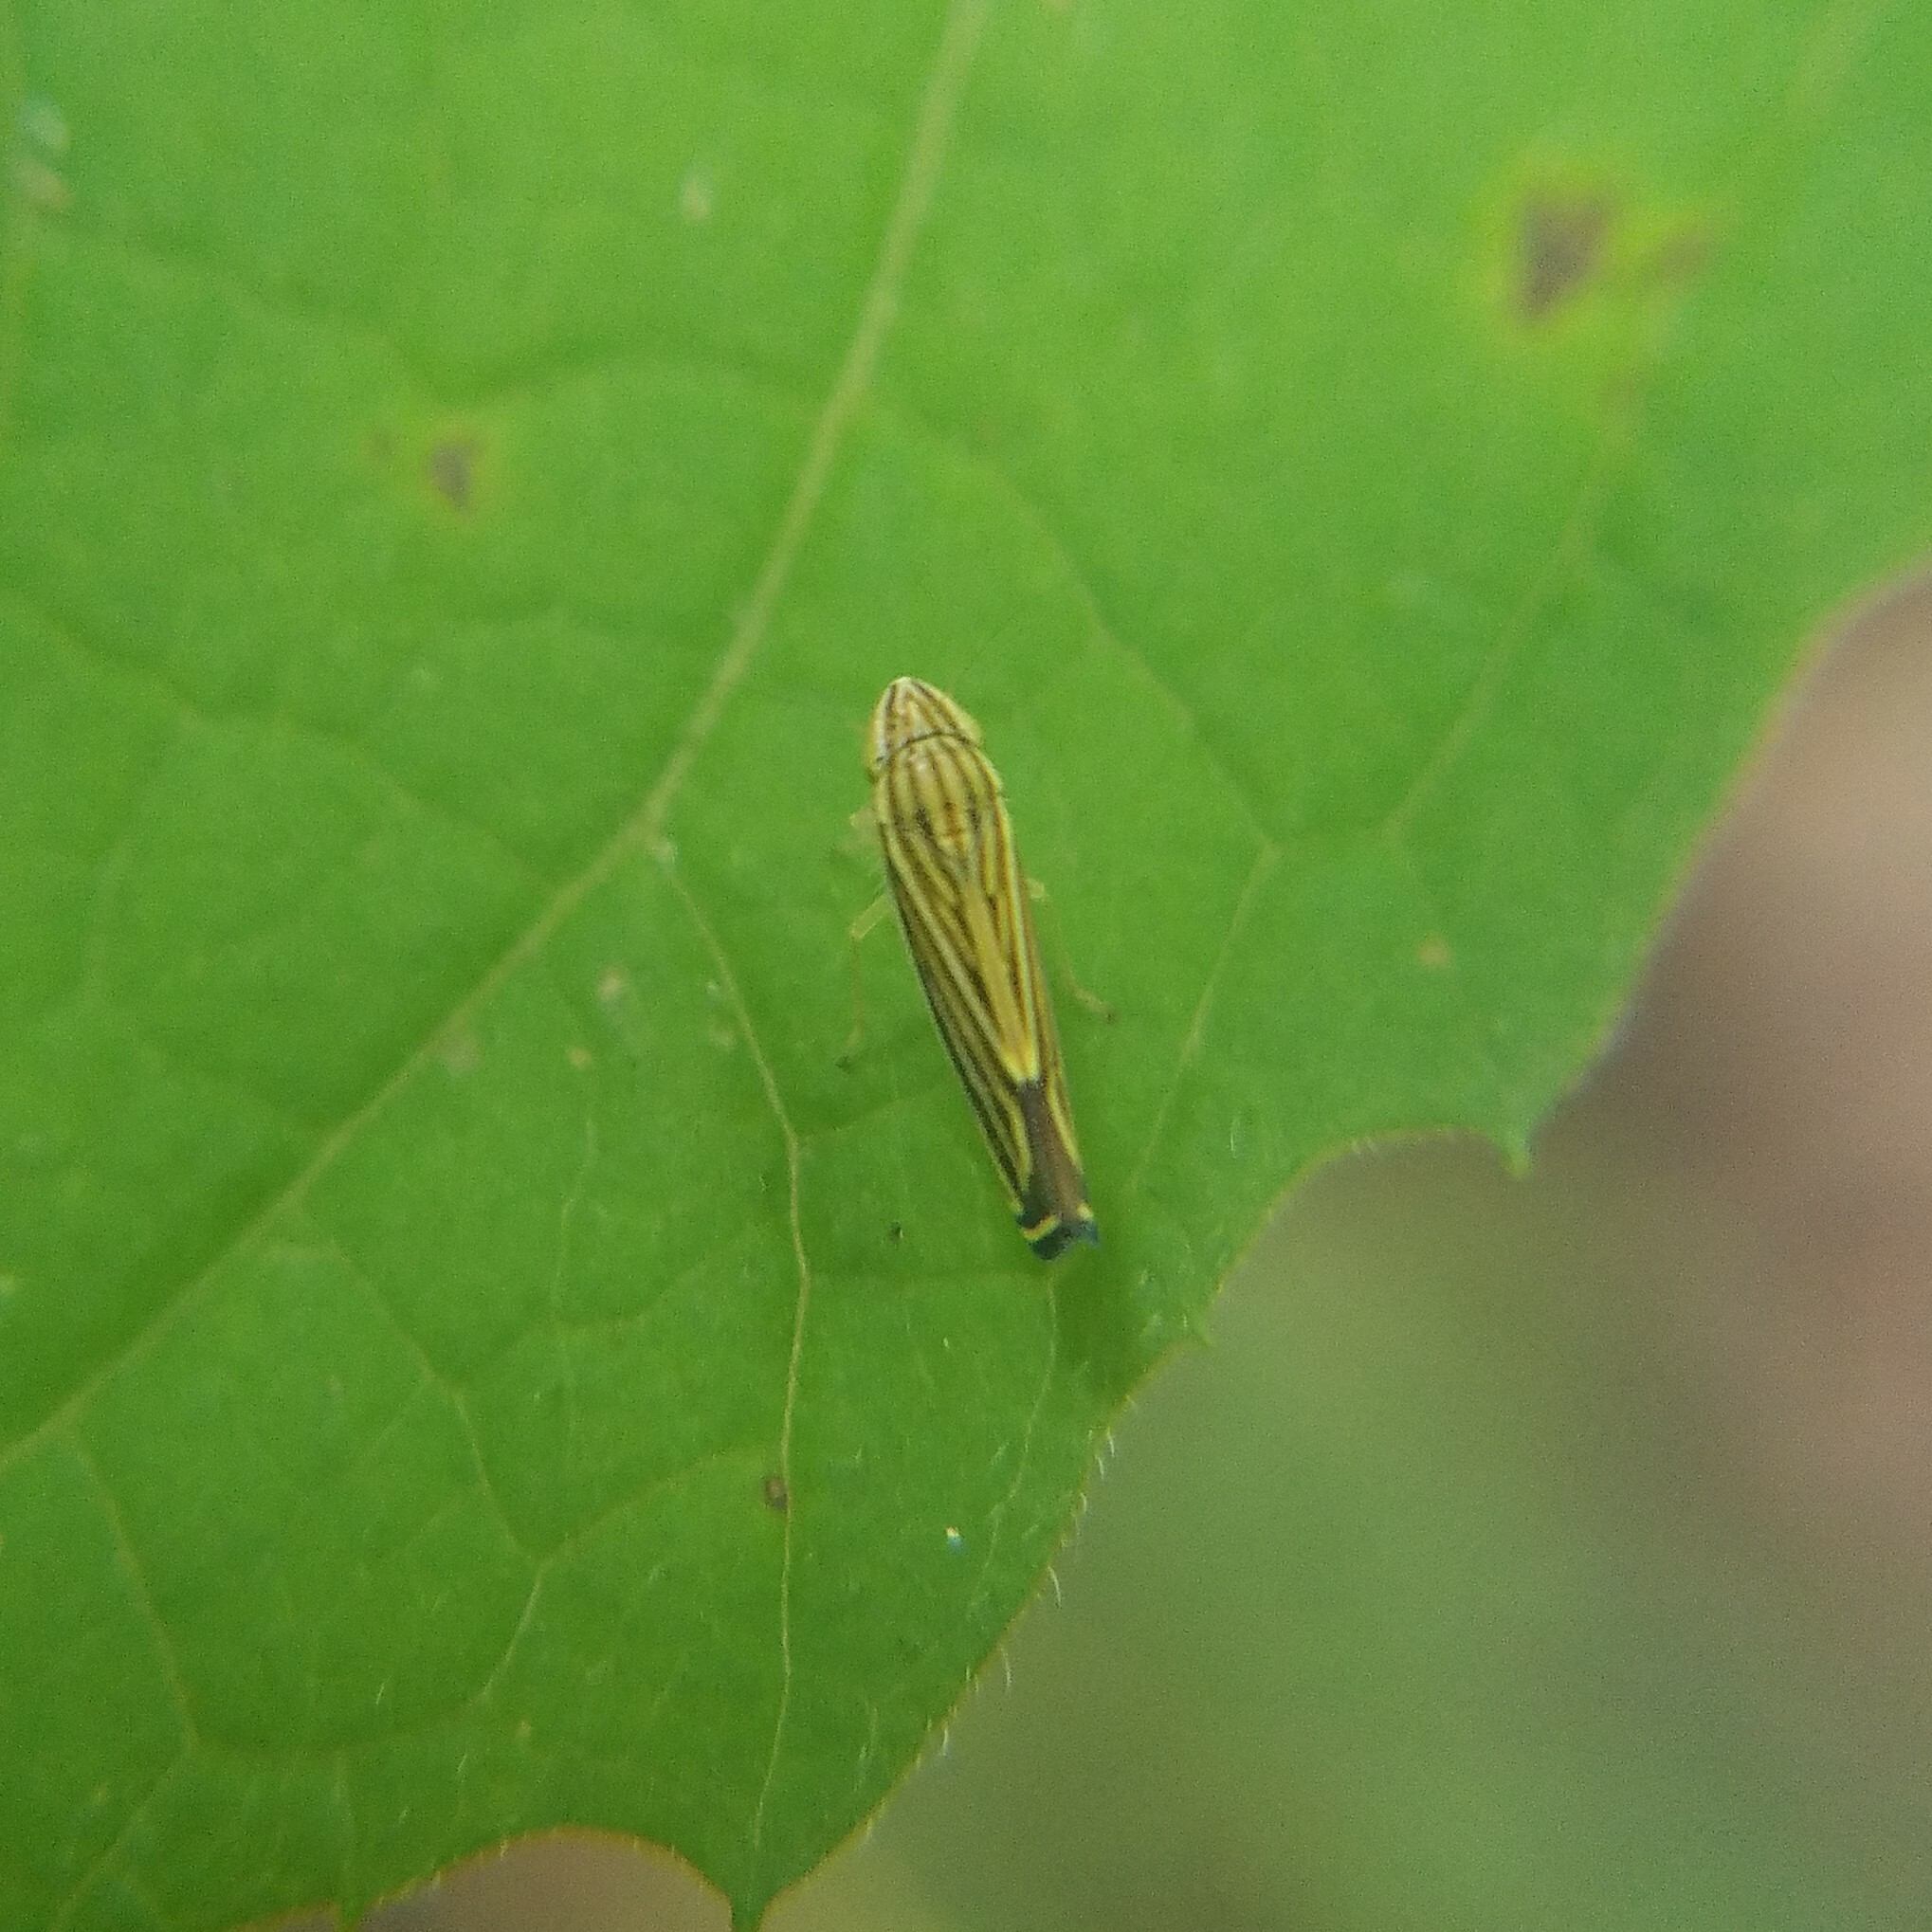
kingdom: Animalia
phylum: Arthropoda
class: Insecta
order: Hemiptera
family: Cicadellidae
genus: Sibovia
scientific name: Sibovia occatoria
